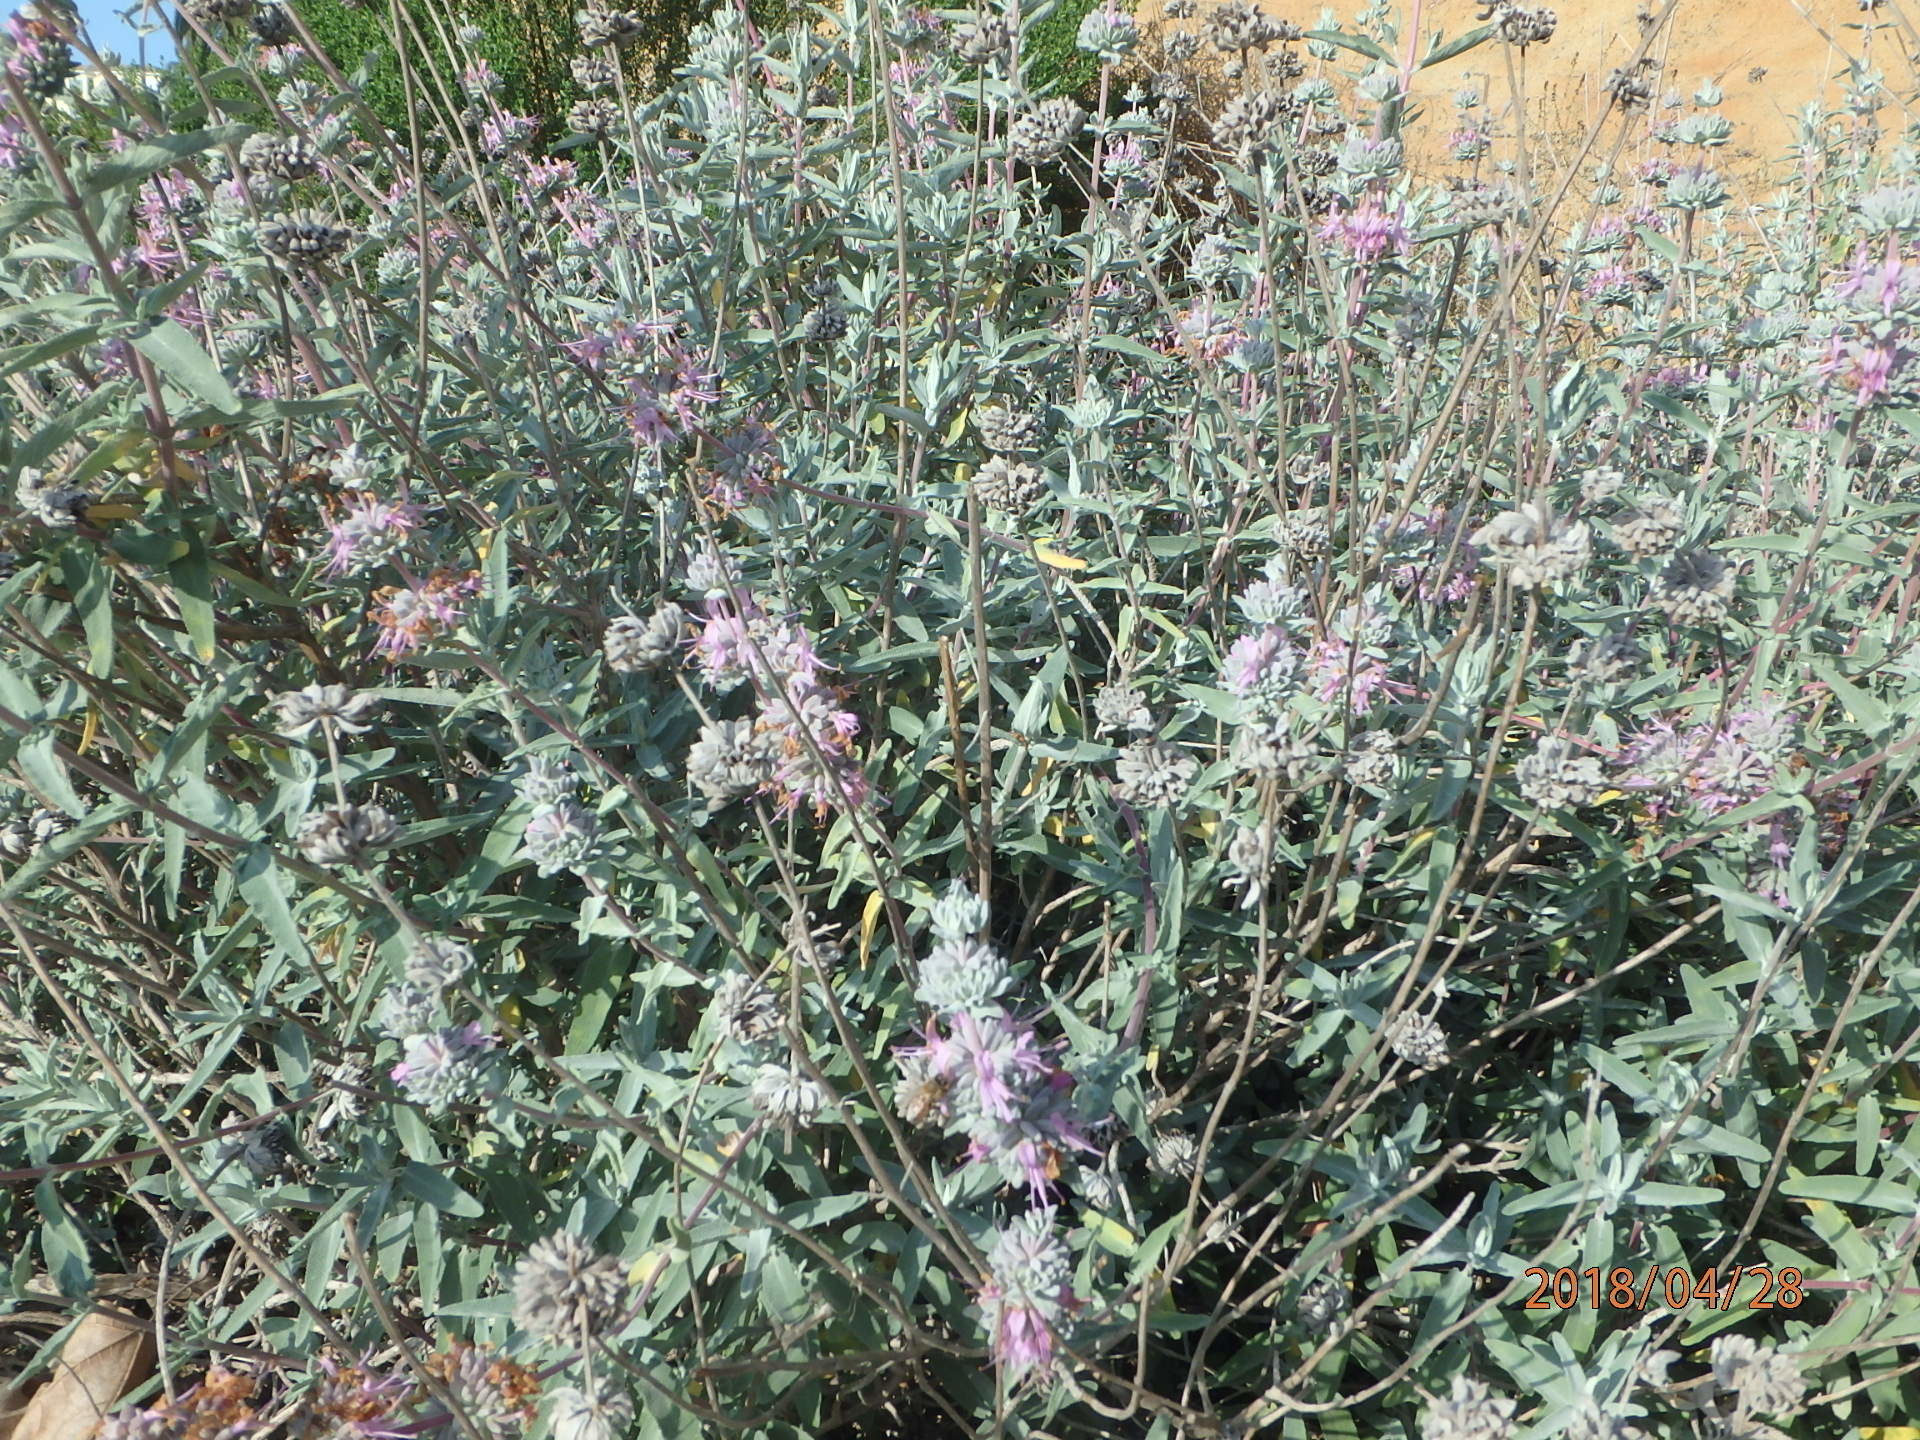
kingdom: Plantae
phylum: Tracheophyta
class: Magnoliopsida
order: Lamiales
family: Lamiaceae
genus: Salvia
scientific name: Salvia leucophylla
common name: Purple sage
